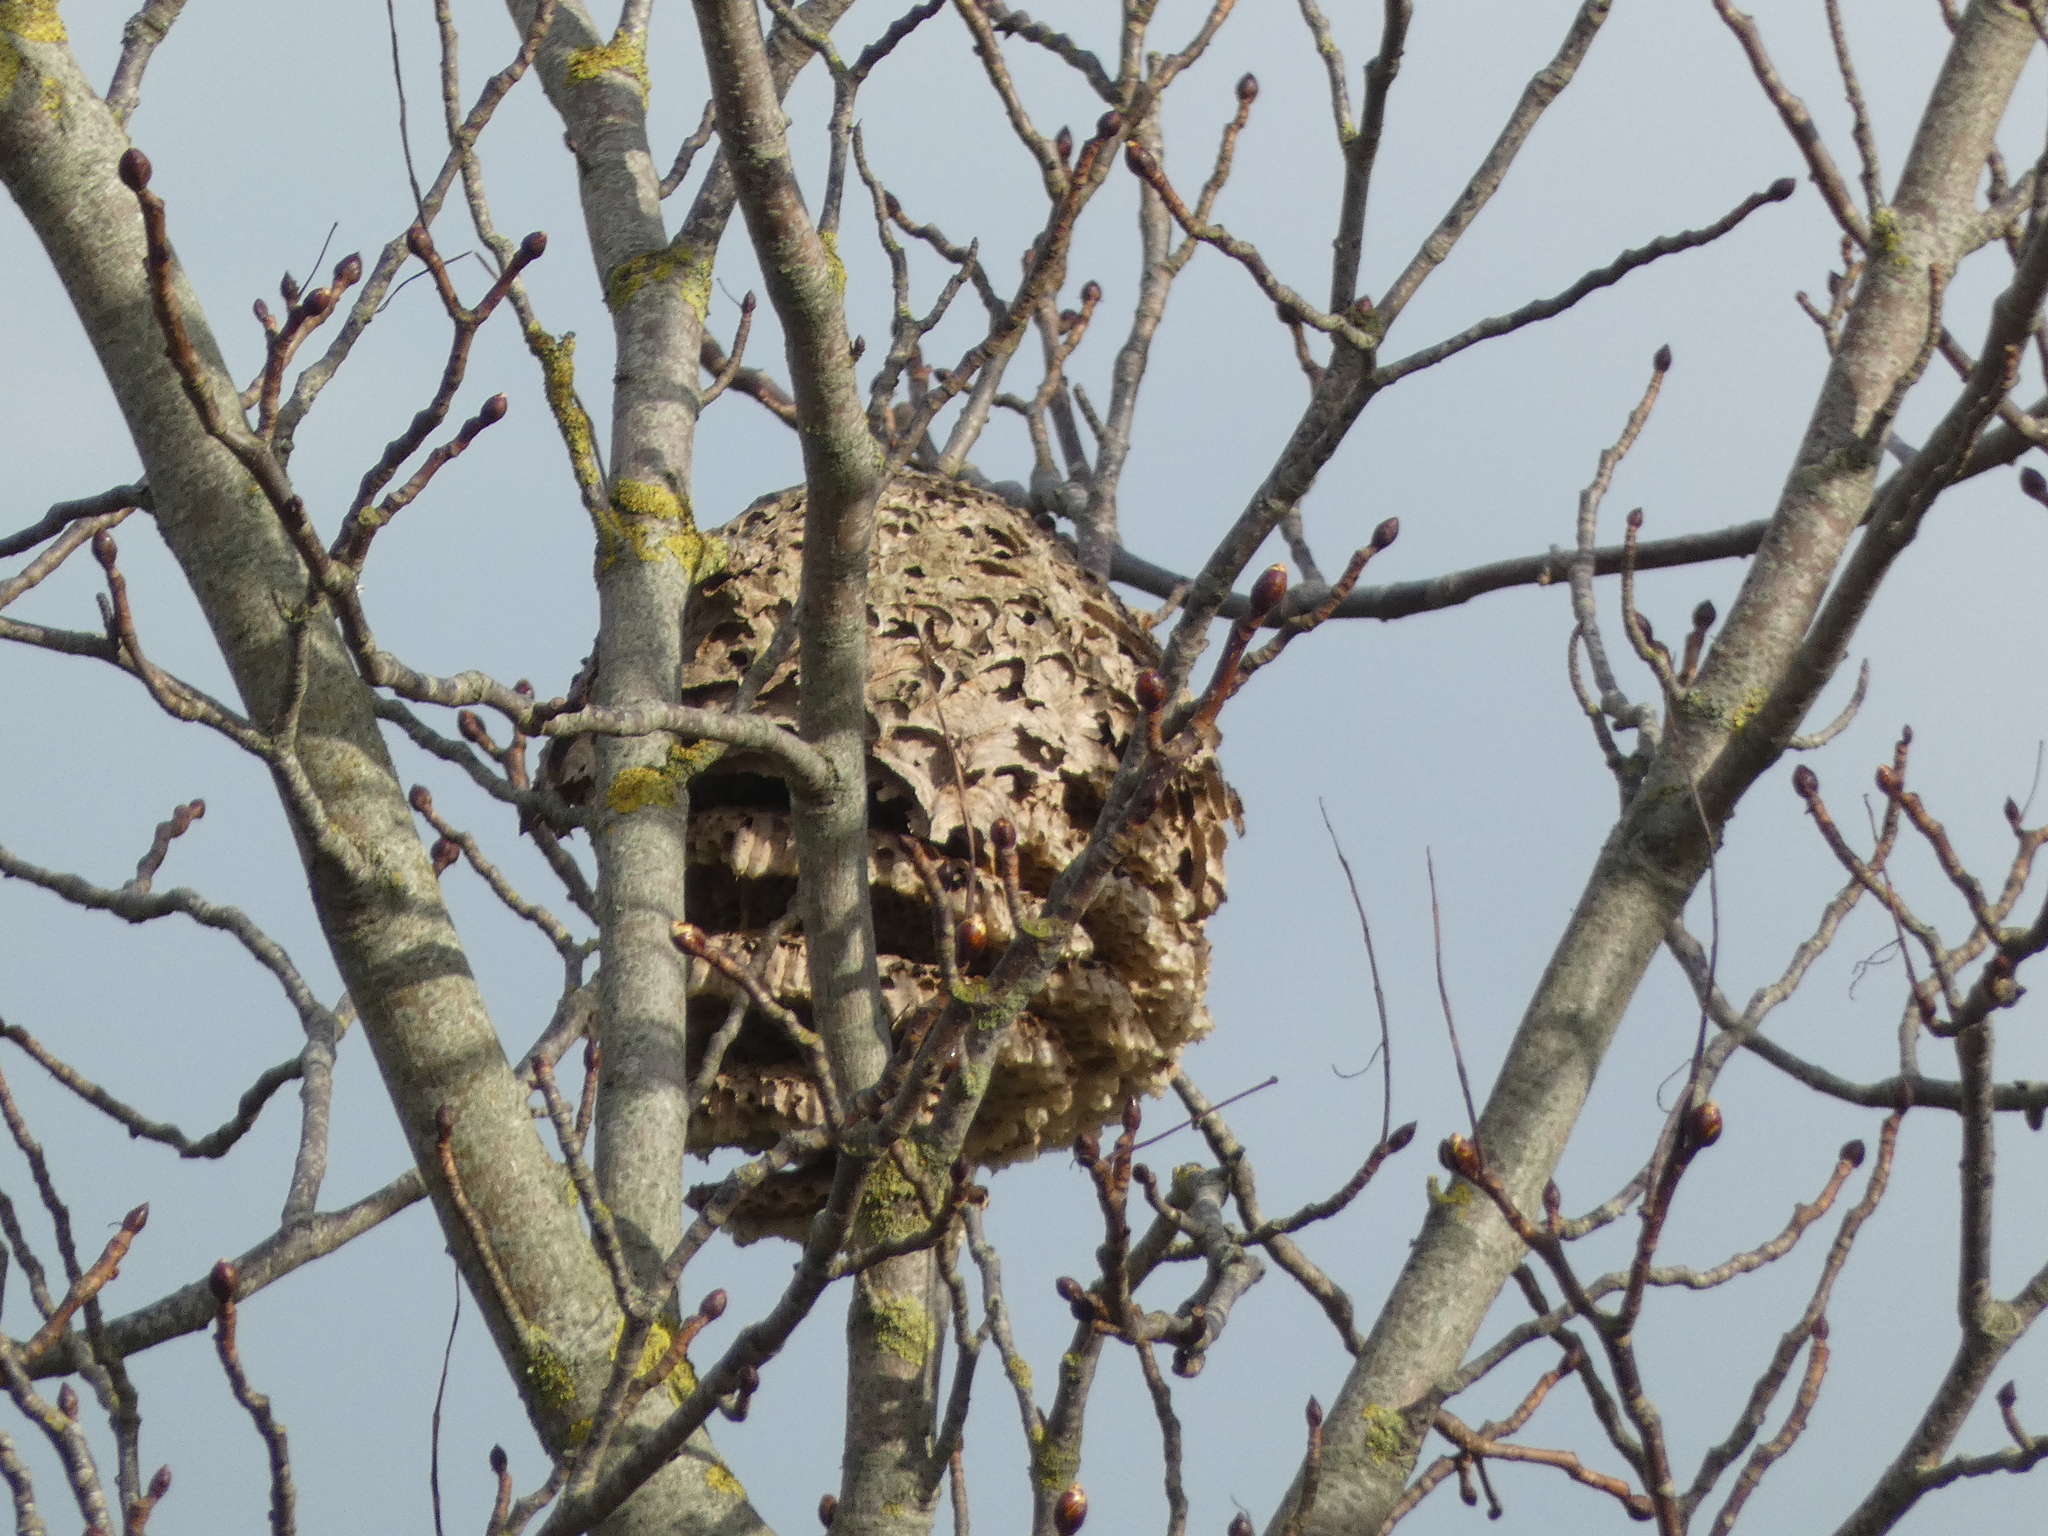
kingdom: Animalia
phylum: Arthropoda
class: Insecta
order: Hymenoptera
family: Vespidae
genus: Vespa
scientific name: Vespa velutina
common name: Asian hornet
